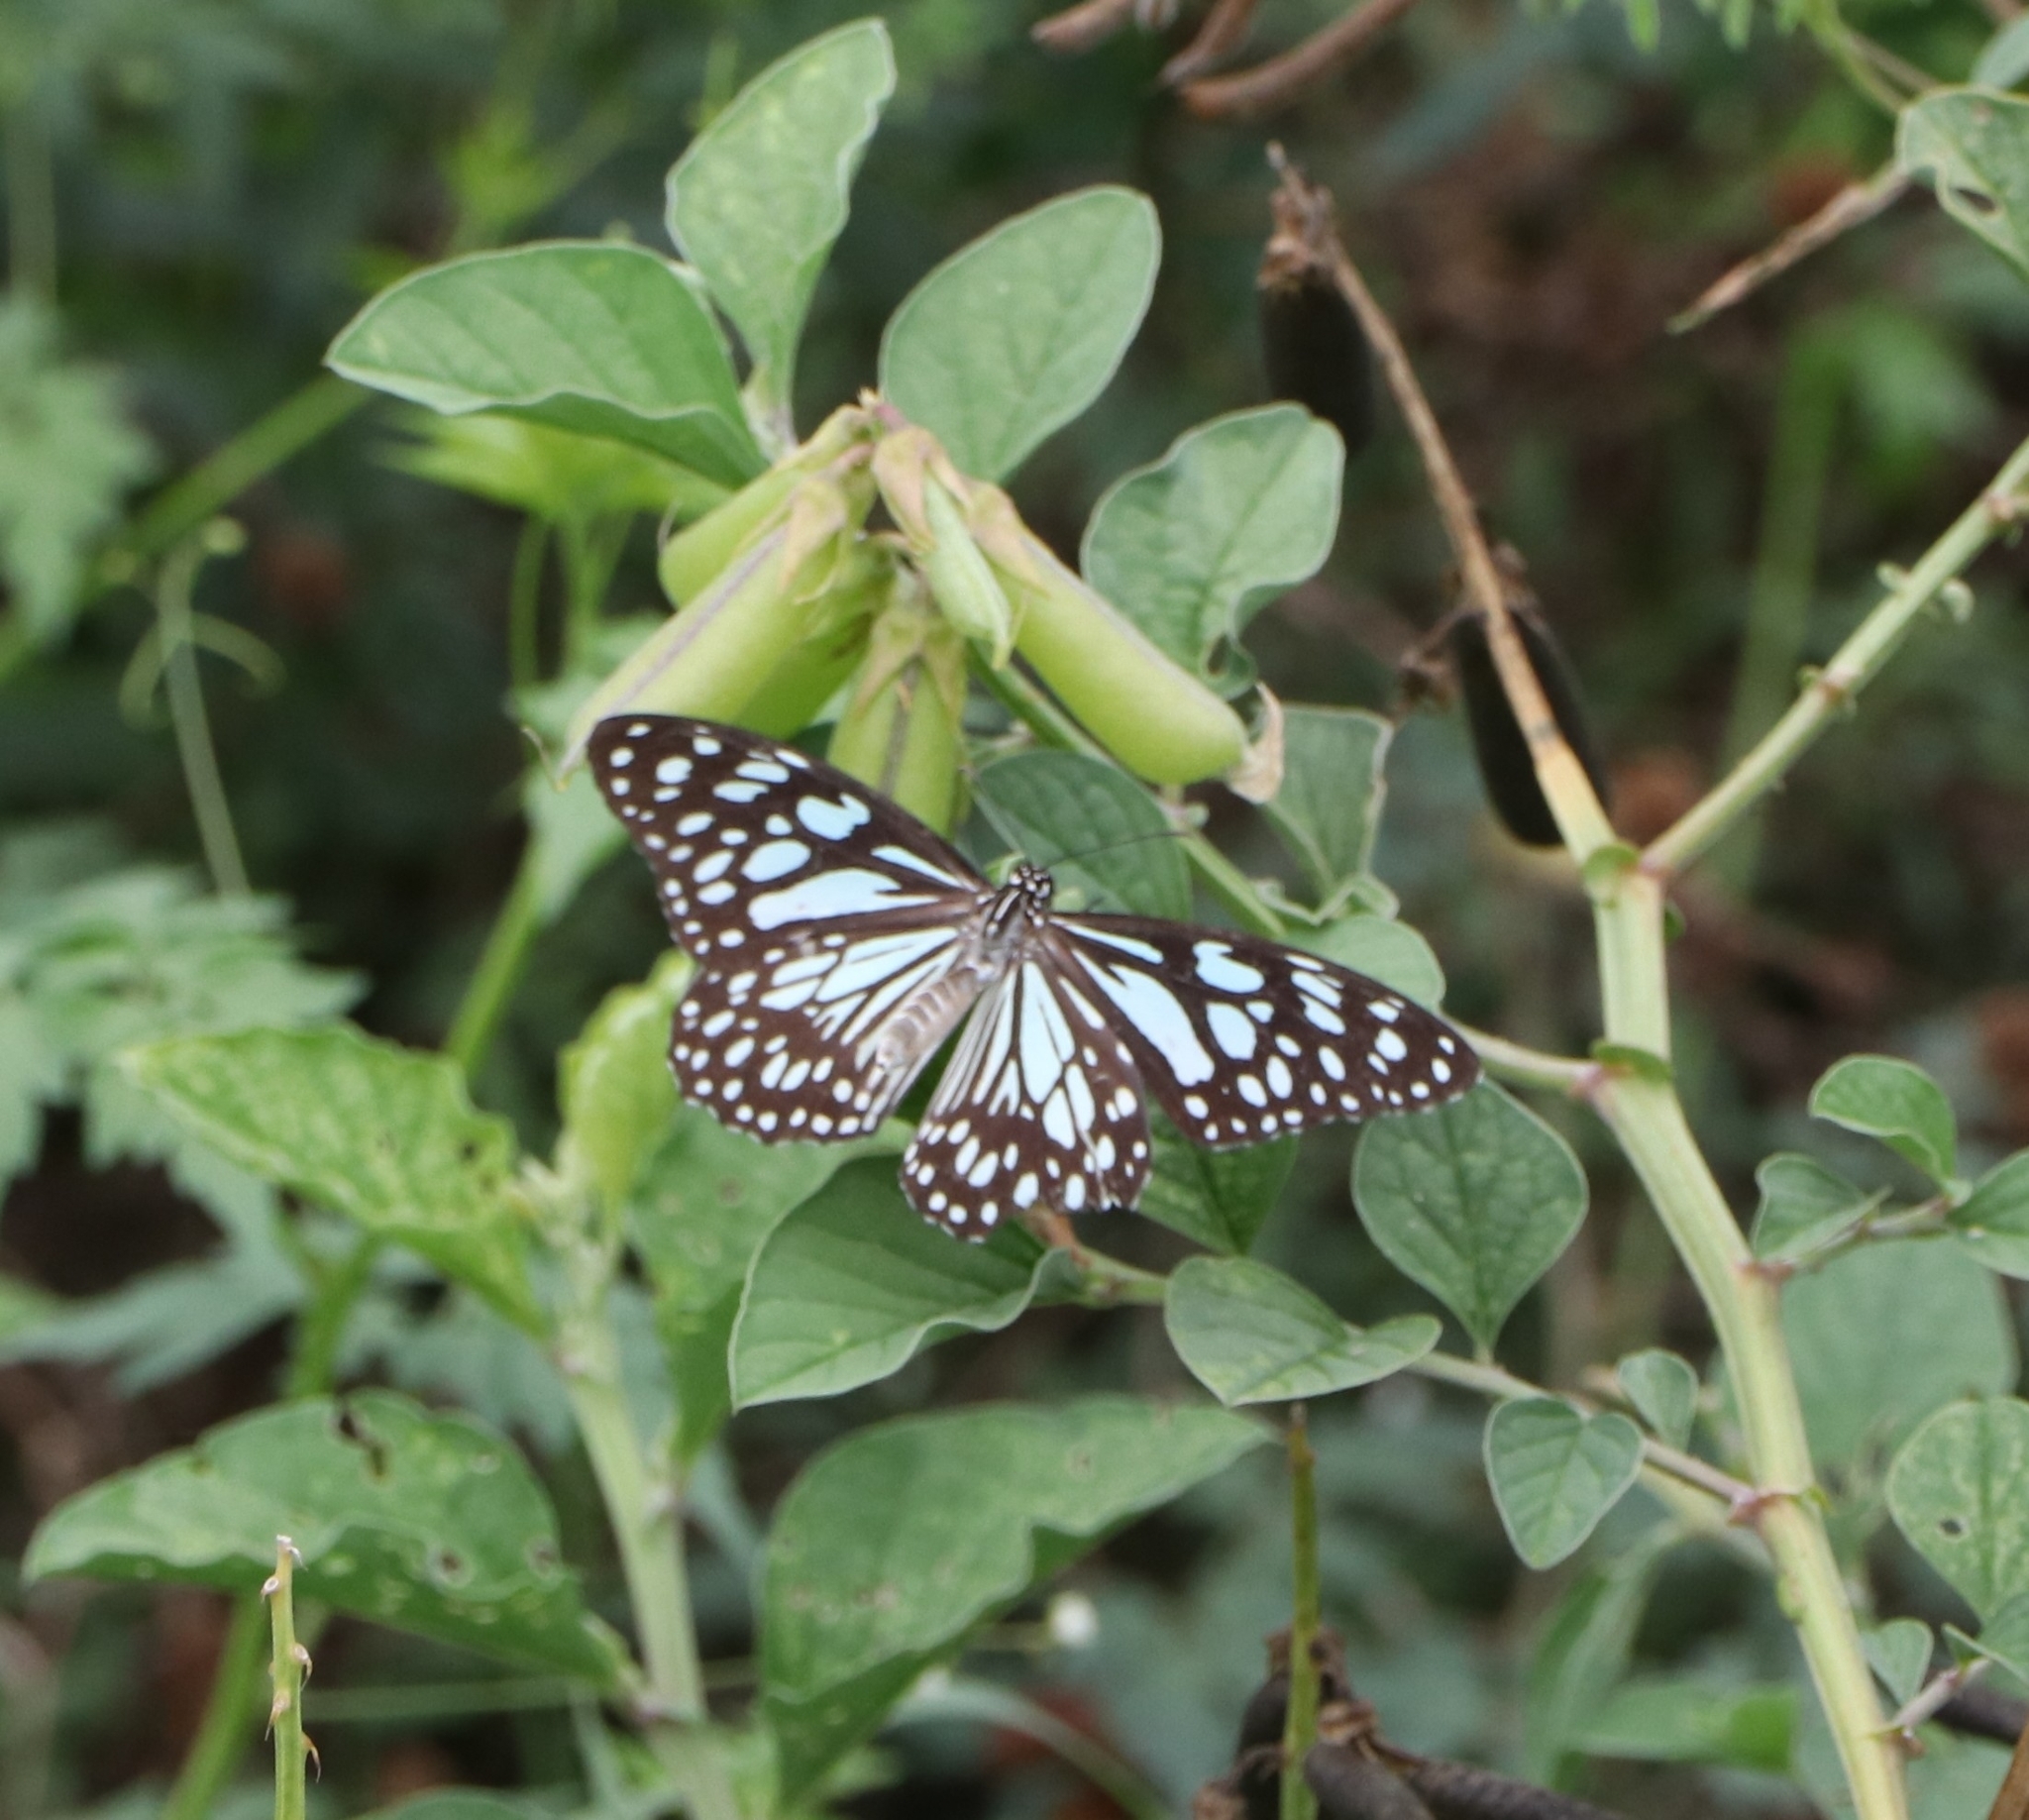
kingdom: Animalia
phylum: Arthropoda
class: Insecta
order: Lepidoptera
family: Nymphalidae
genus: Tirumala
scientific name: Tirumala limniace
